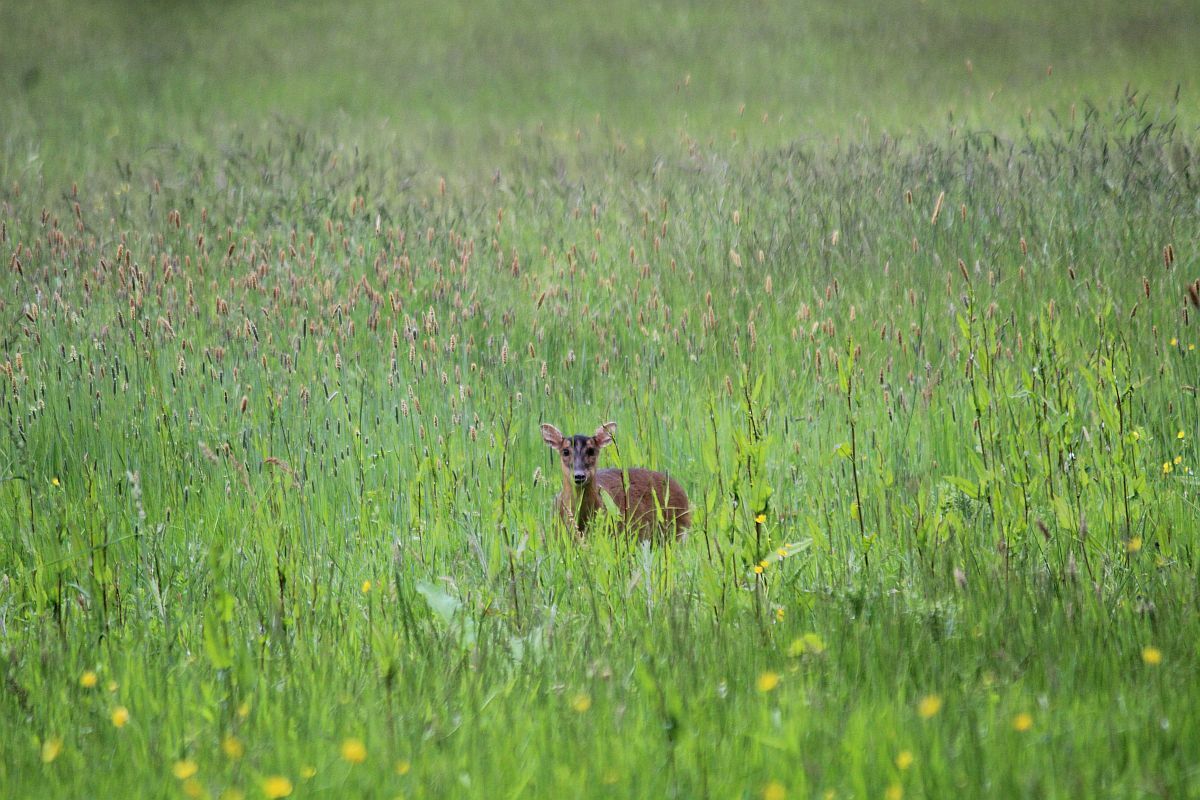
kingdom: Animalia
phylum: Chordata
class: Mammalia
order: Artiodactyla
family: Cervidae
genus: Muntiacus
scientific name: Muntiacus reevesi
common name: Reeves' muntjac
